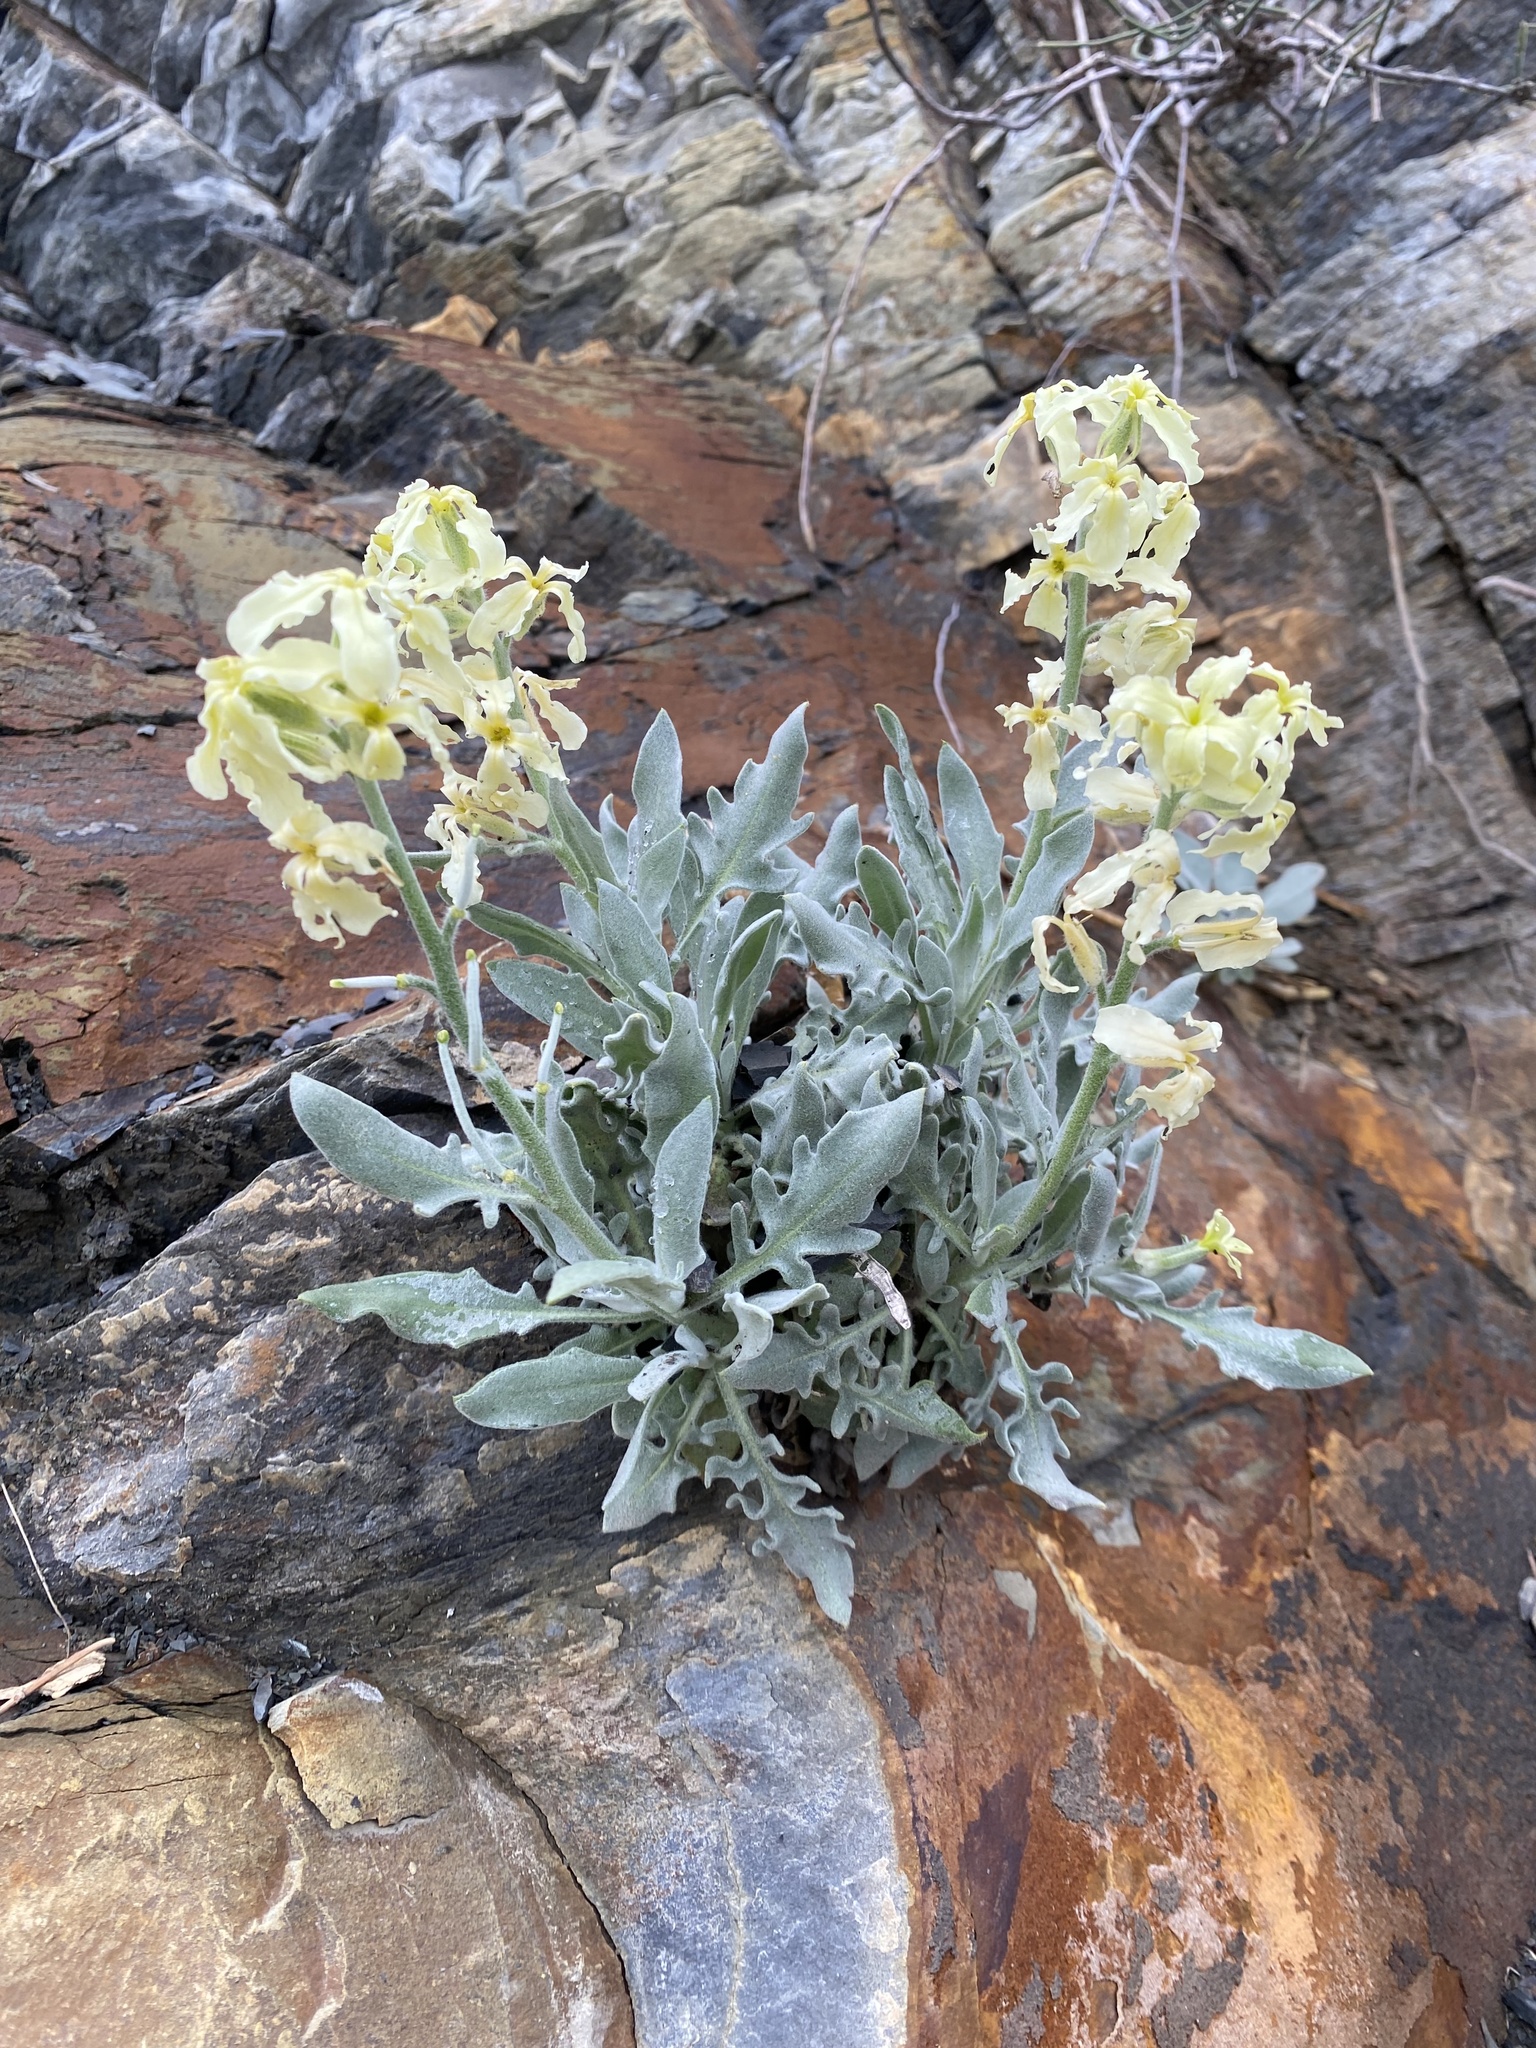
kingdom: Plantae
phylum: Tracheophyta
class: Magnoliopsida
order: Brassicales
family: Brassicaceae
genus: Matthiola
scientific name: Matthiola odoratissima
